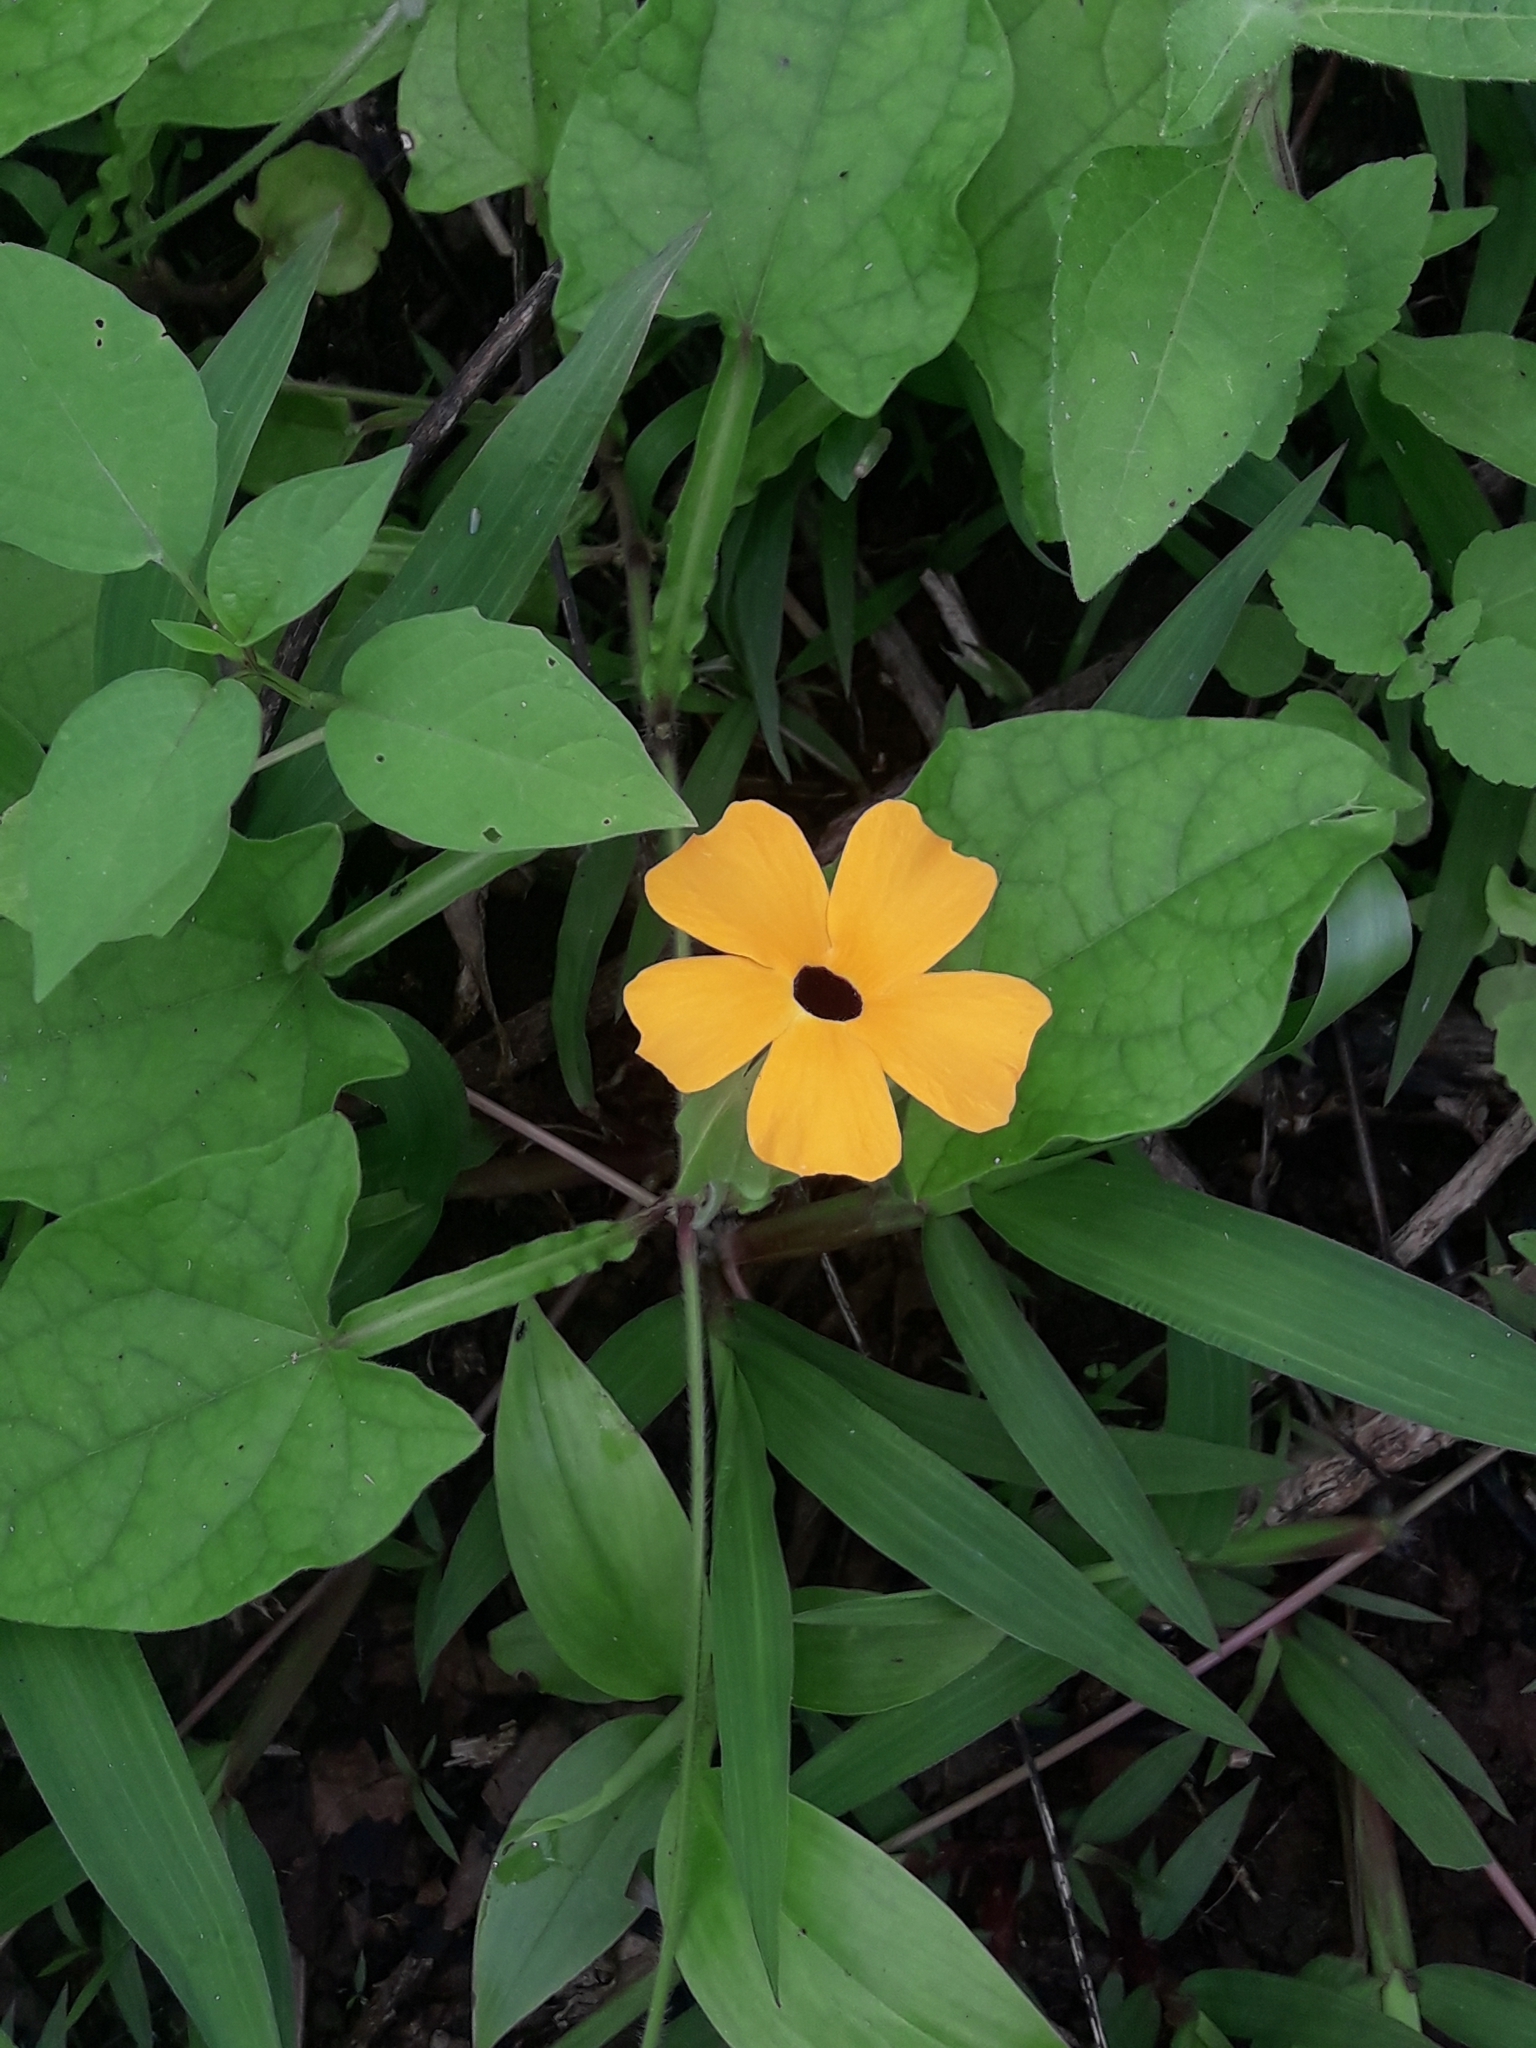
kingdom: Plantae
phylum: Tracheophyta
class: Magnoliopsida
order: Lamiales
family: Acanthaceae
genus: Thunbergia
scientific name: Thunbergia alata
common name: Blackeyed susan vine
